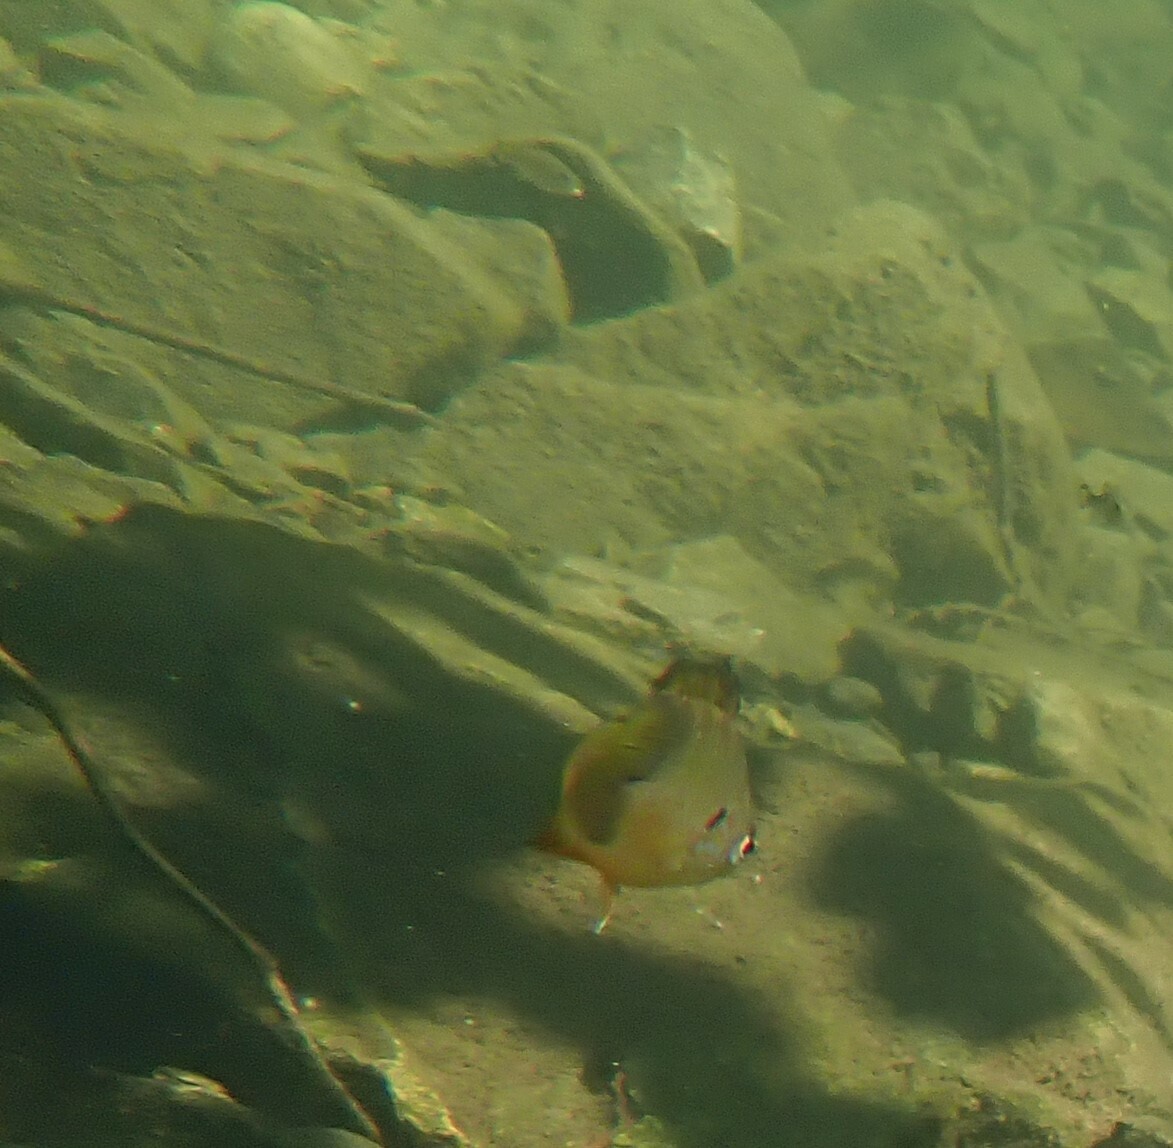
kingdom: Animalia
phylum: Chordata
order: Perciformes
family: Centrarchidae
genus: Lepomis
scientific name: Lepomis gibbosus
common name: Pumpkinseed
